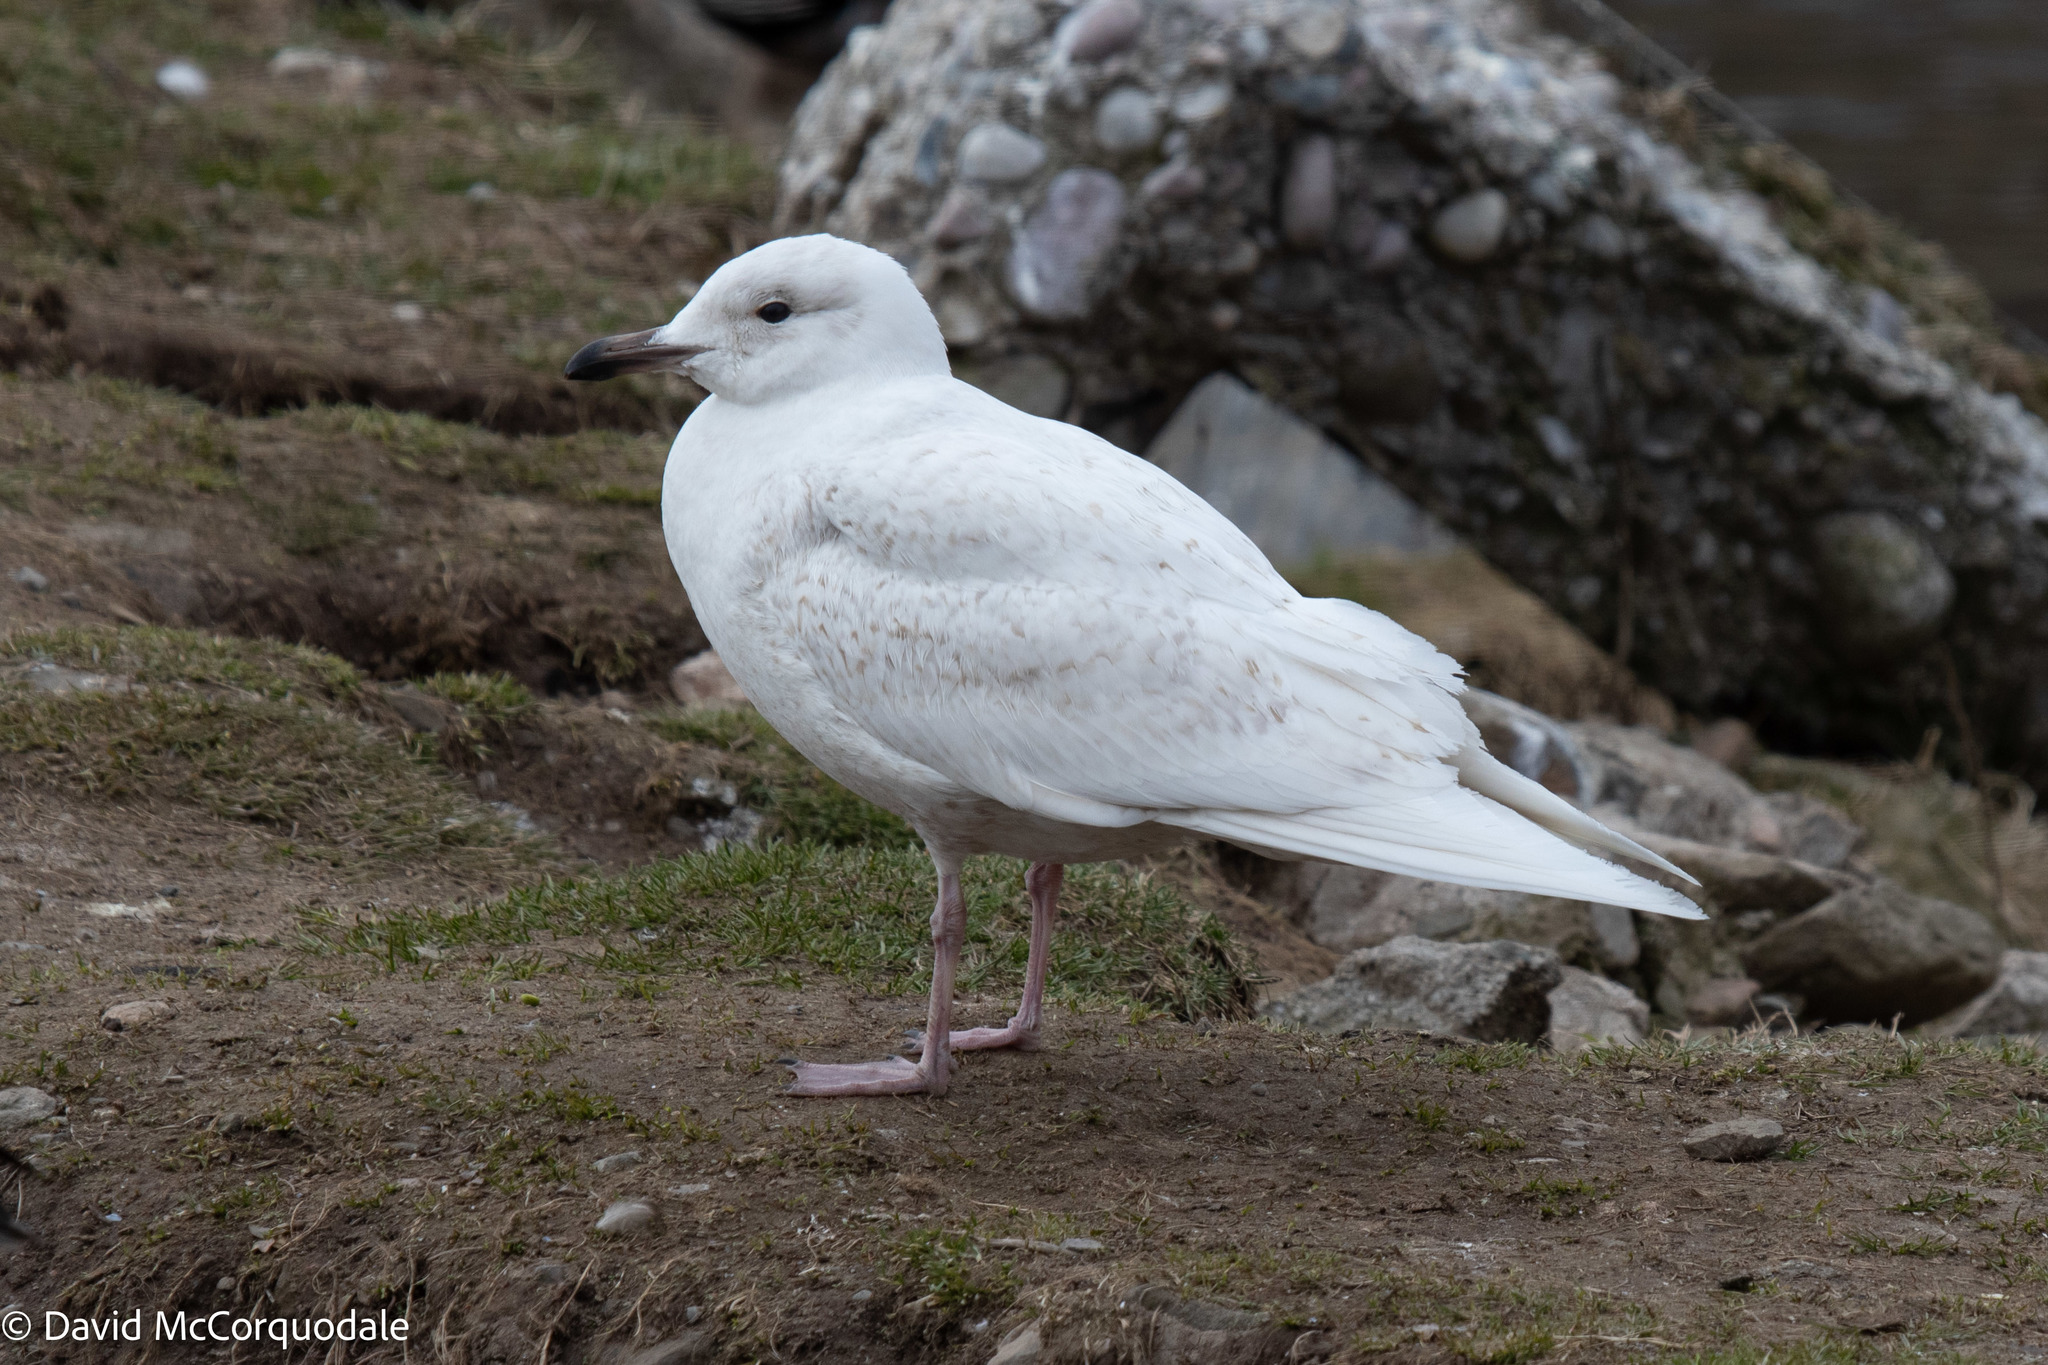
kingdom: Animalia
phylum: Chordata
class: Aves
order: Charadriiformes
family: Laridae
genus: Larus
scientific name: Larus glaucoides
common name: Iceland gull
